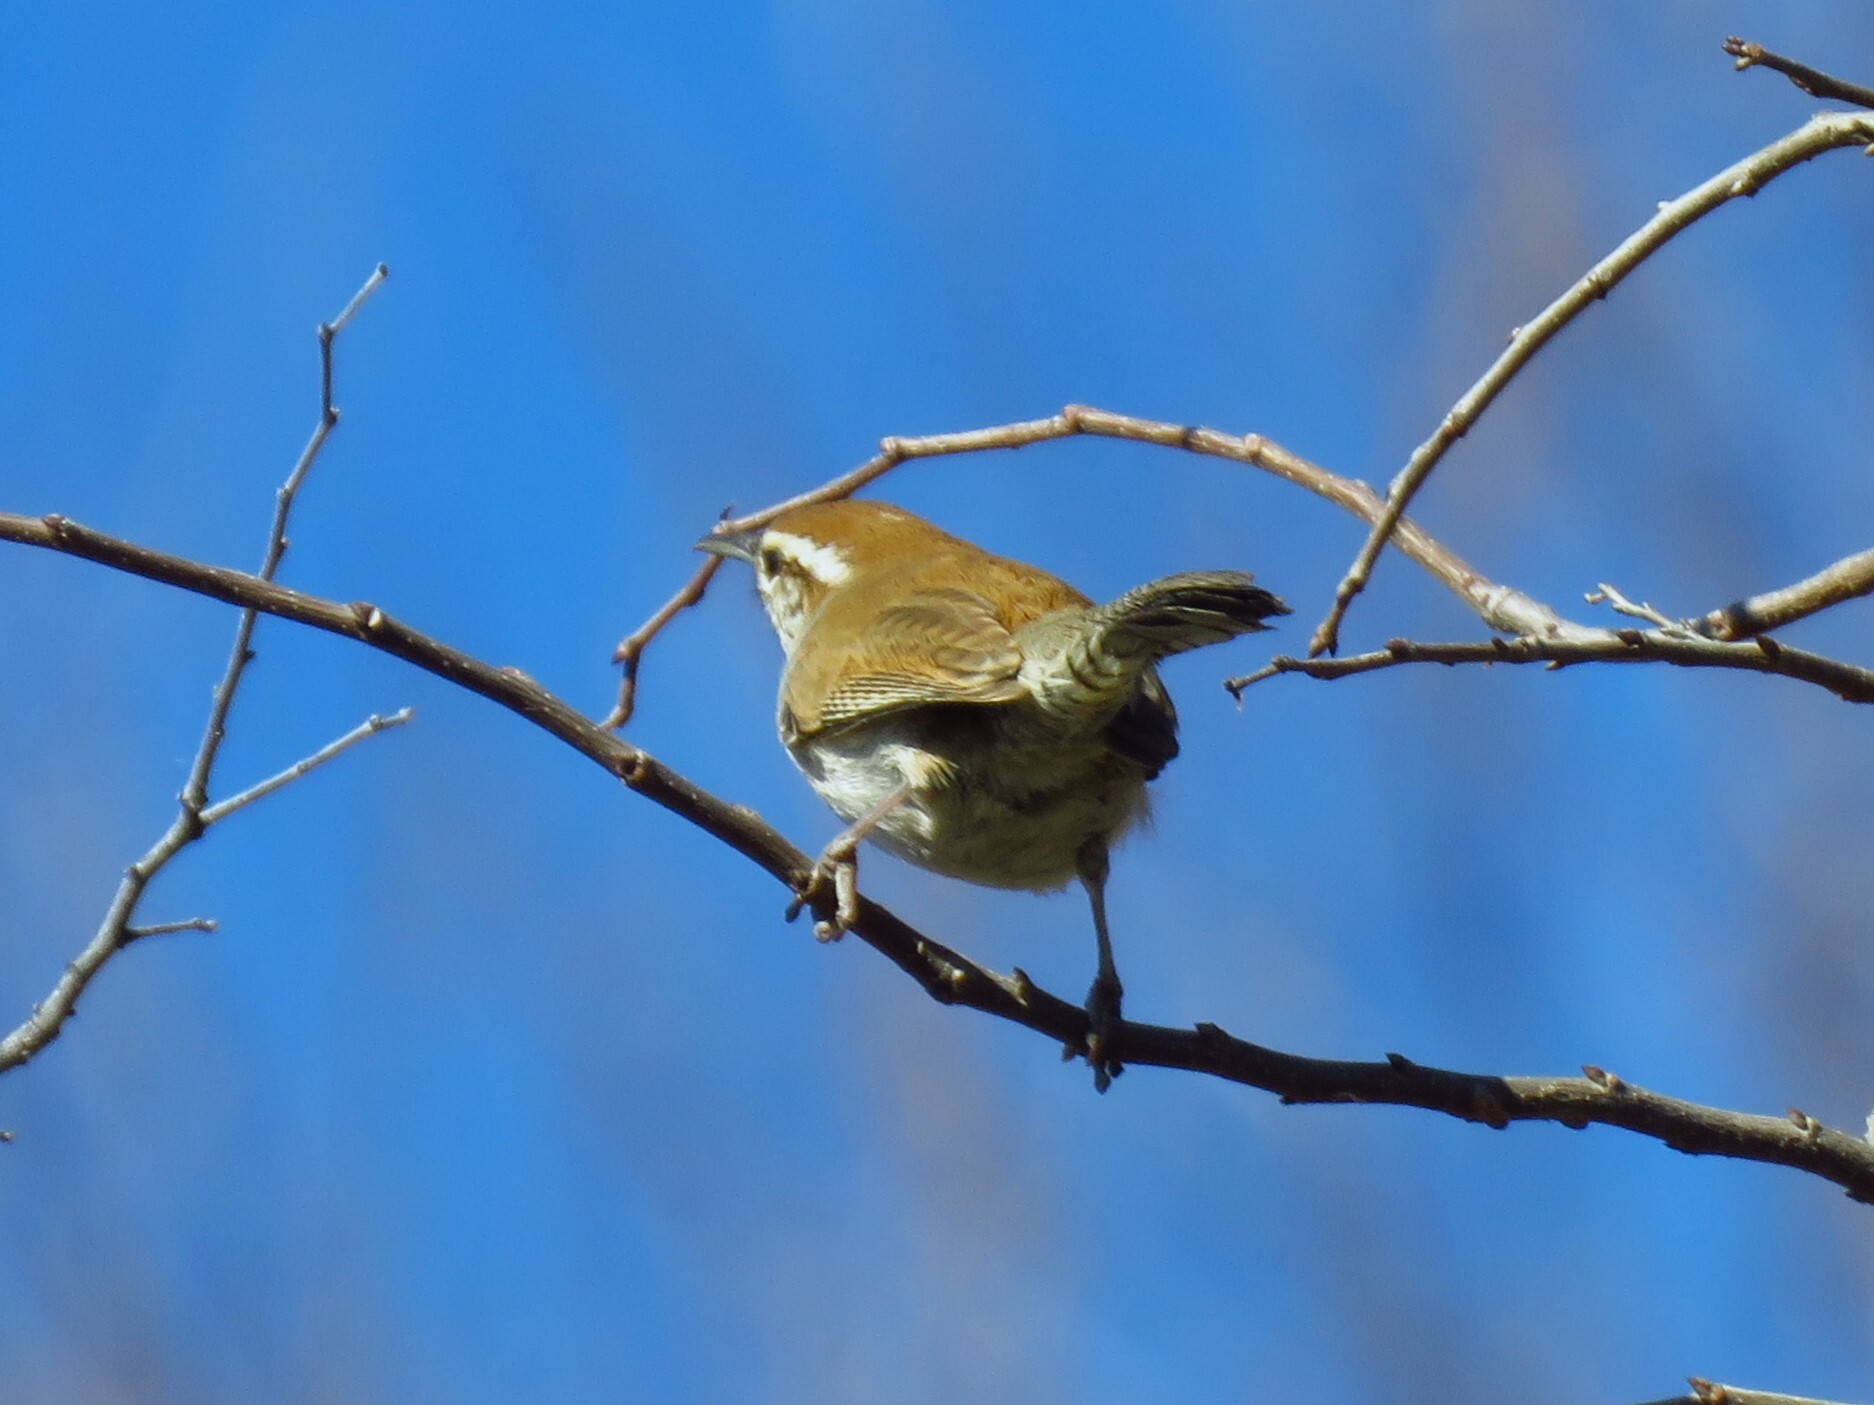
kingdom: Animalia
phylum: Chordata
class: Aves
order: Passeriformes
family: Troglodytidae
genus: Thryomanes
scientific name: Thryomanes bewickii
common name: Bewick's wren
